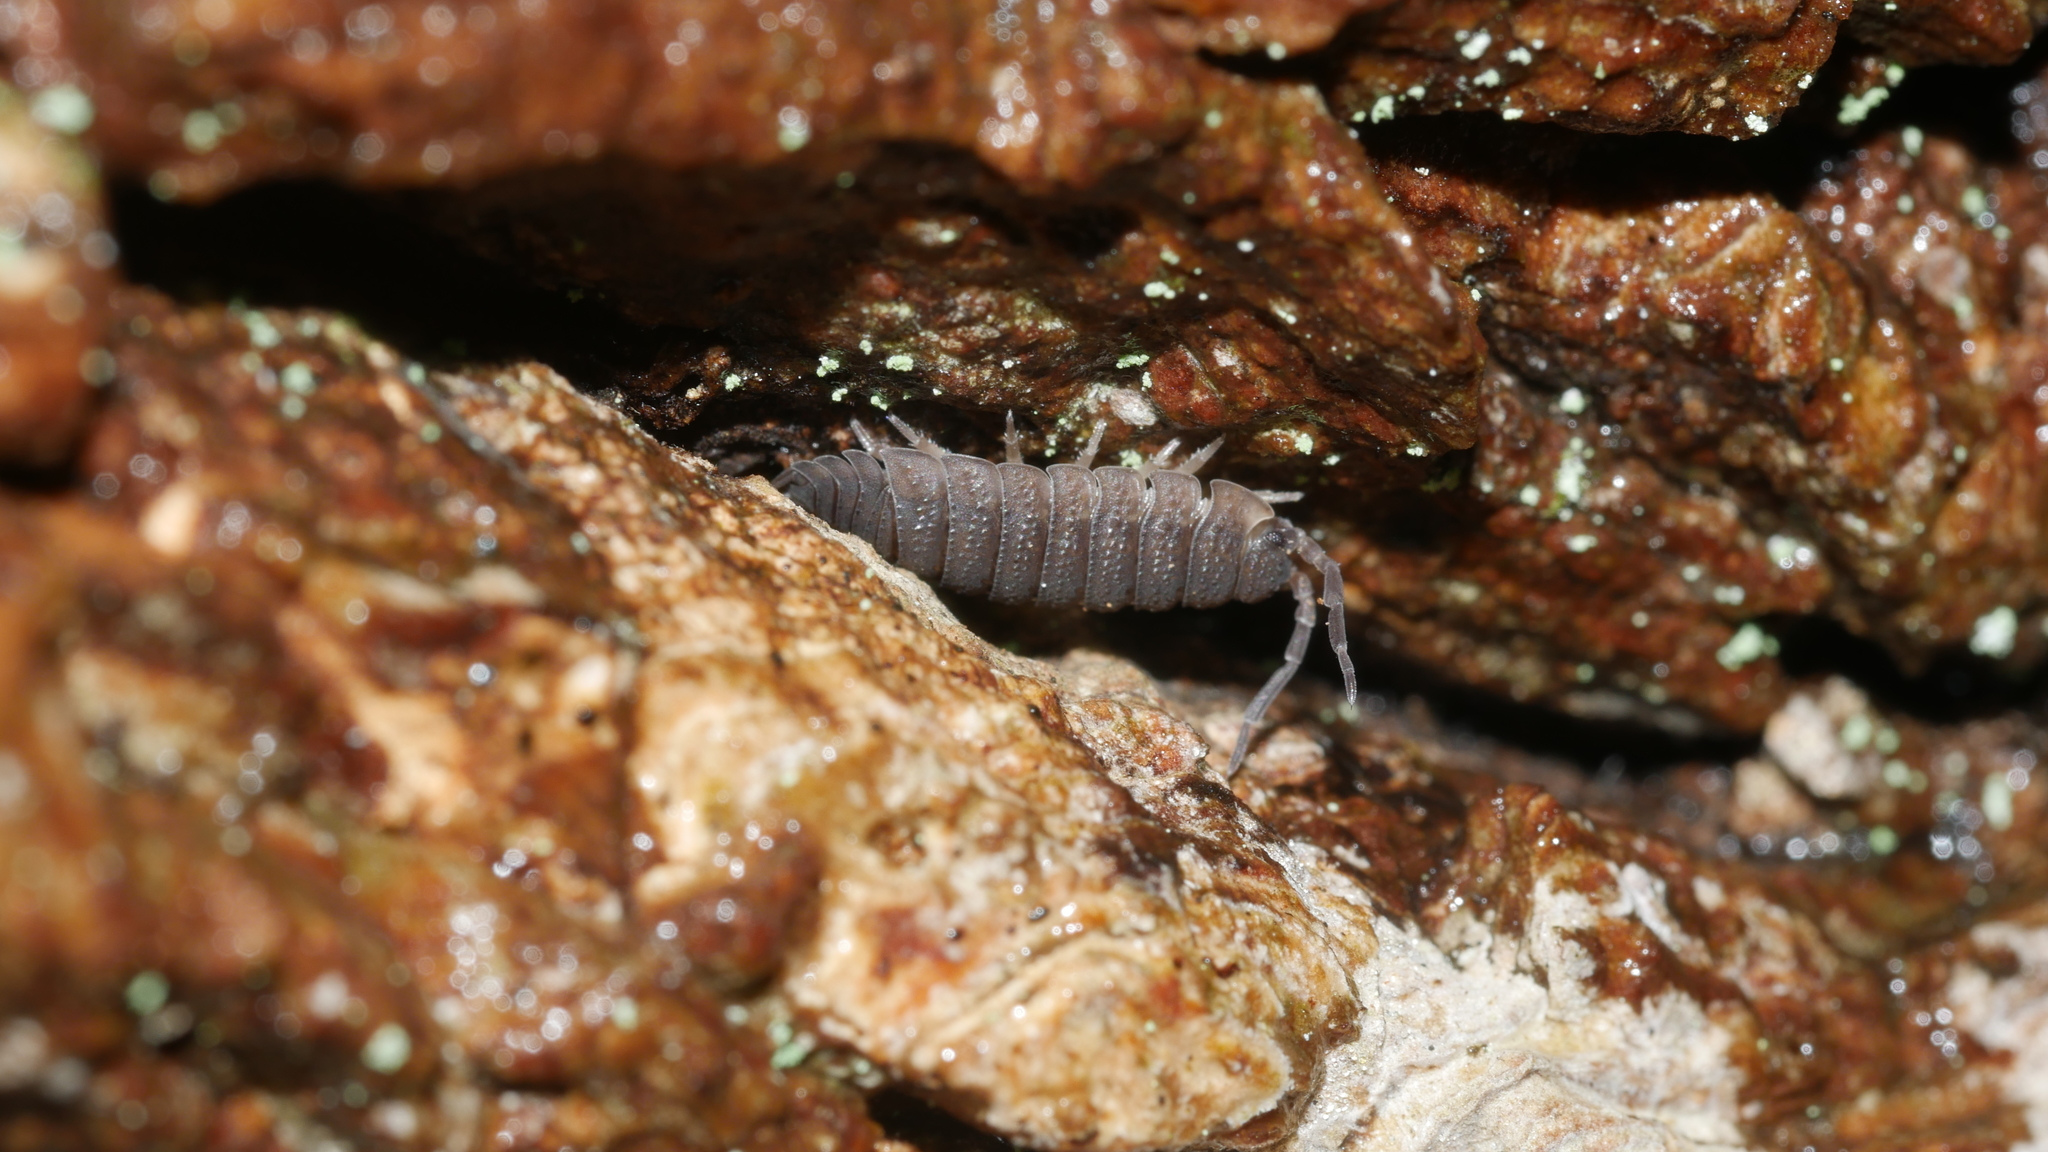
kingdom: Animalia
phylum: Arthropoda
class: Malacostraca
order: Isopoda
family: Porcellionidae
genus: Porcellio
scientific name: Porcellio scaber
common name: Common rough woodlouse
